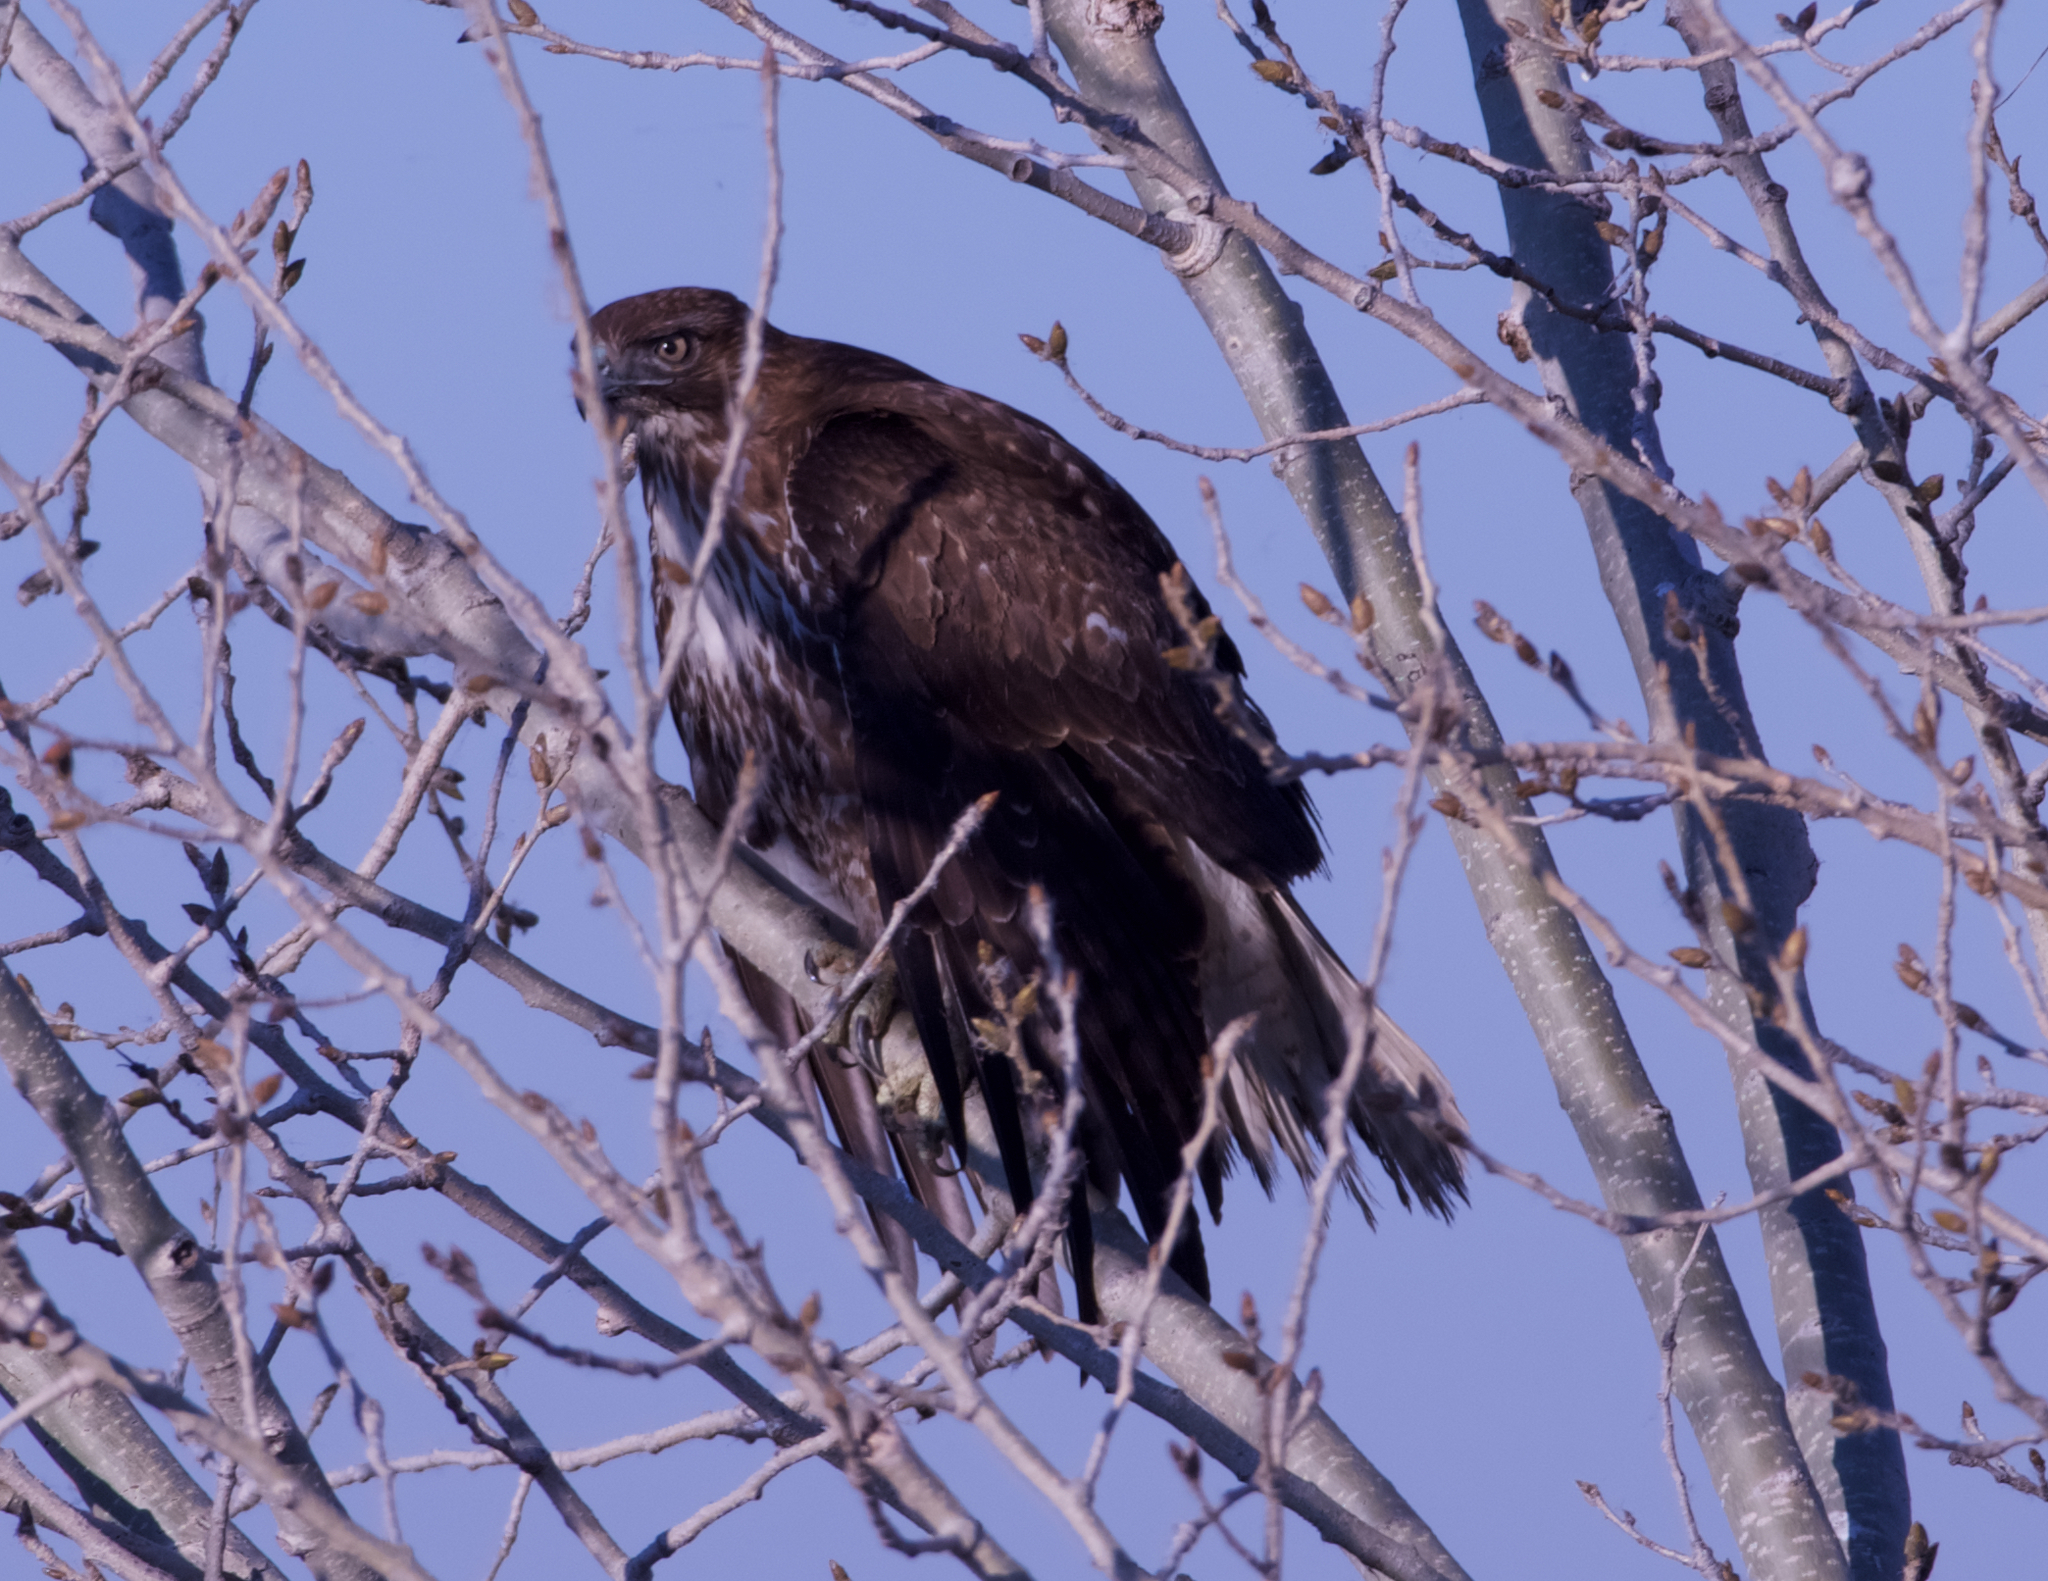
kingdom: Animalia
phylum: Chordata
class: Aves
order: Accipitriformes
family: Accipitridae
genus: Buteo
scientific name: Buteo jamaicensis
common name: Red-tailed hawk
